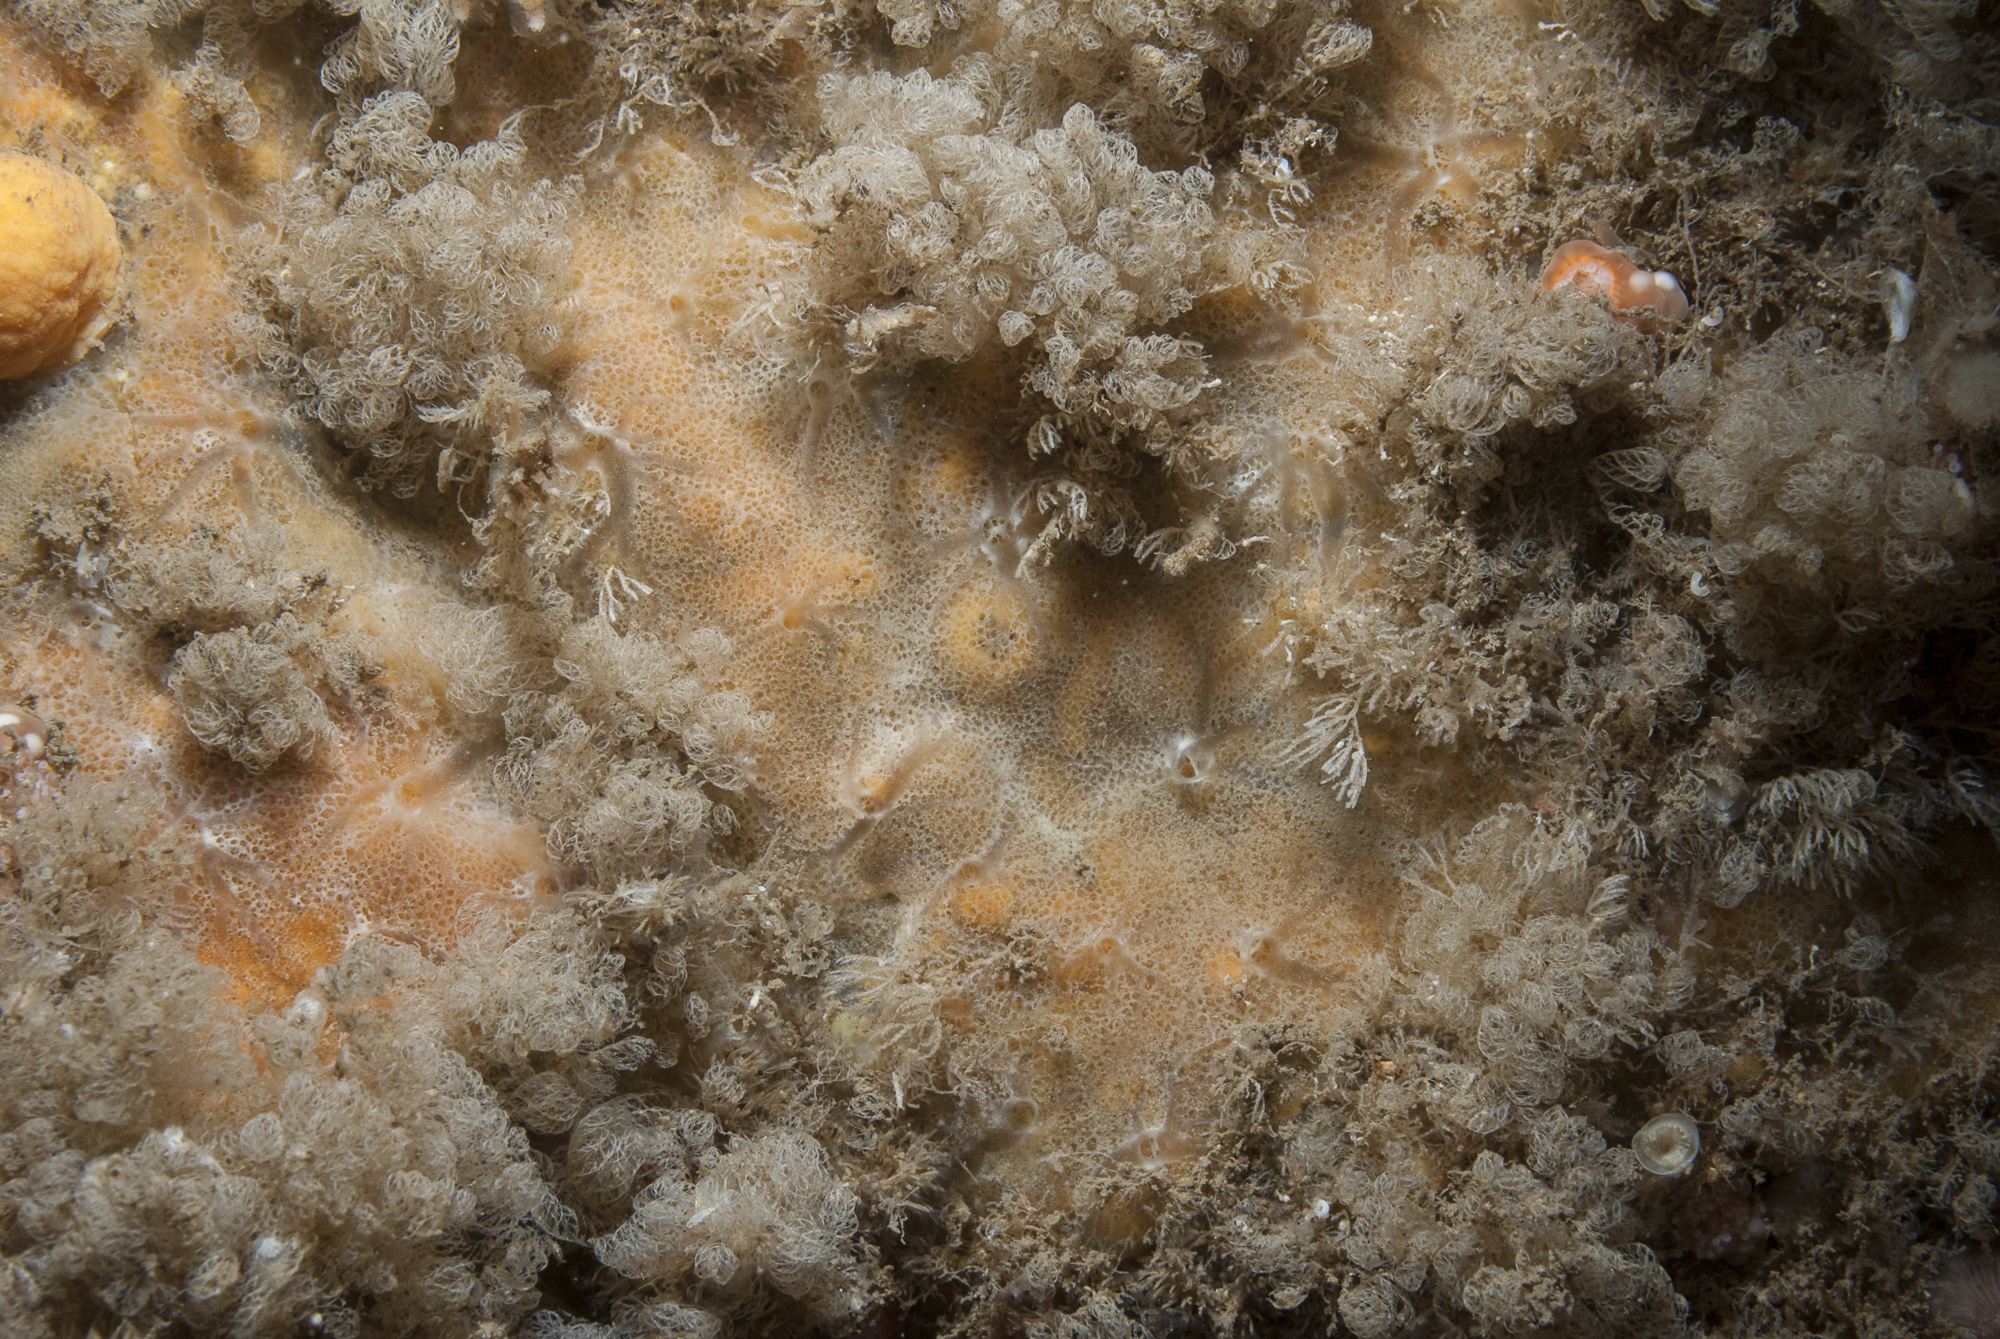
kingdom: Animalia
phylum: Porifera
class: Demospongiae
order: Poecilosclerida
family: Hymedesmiidae
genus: Phorbas
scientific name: Phorbas punctatus
